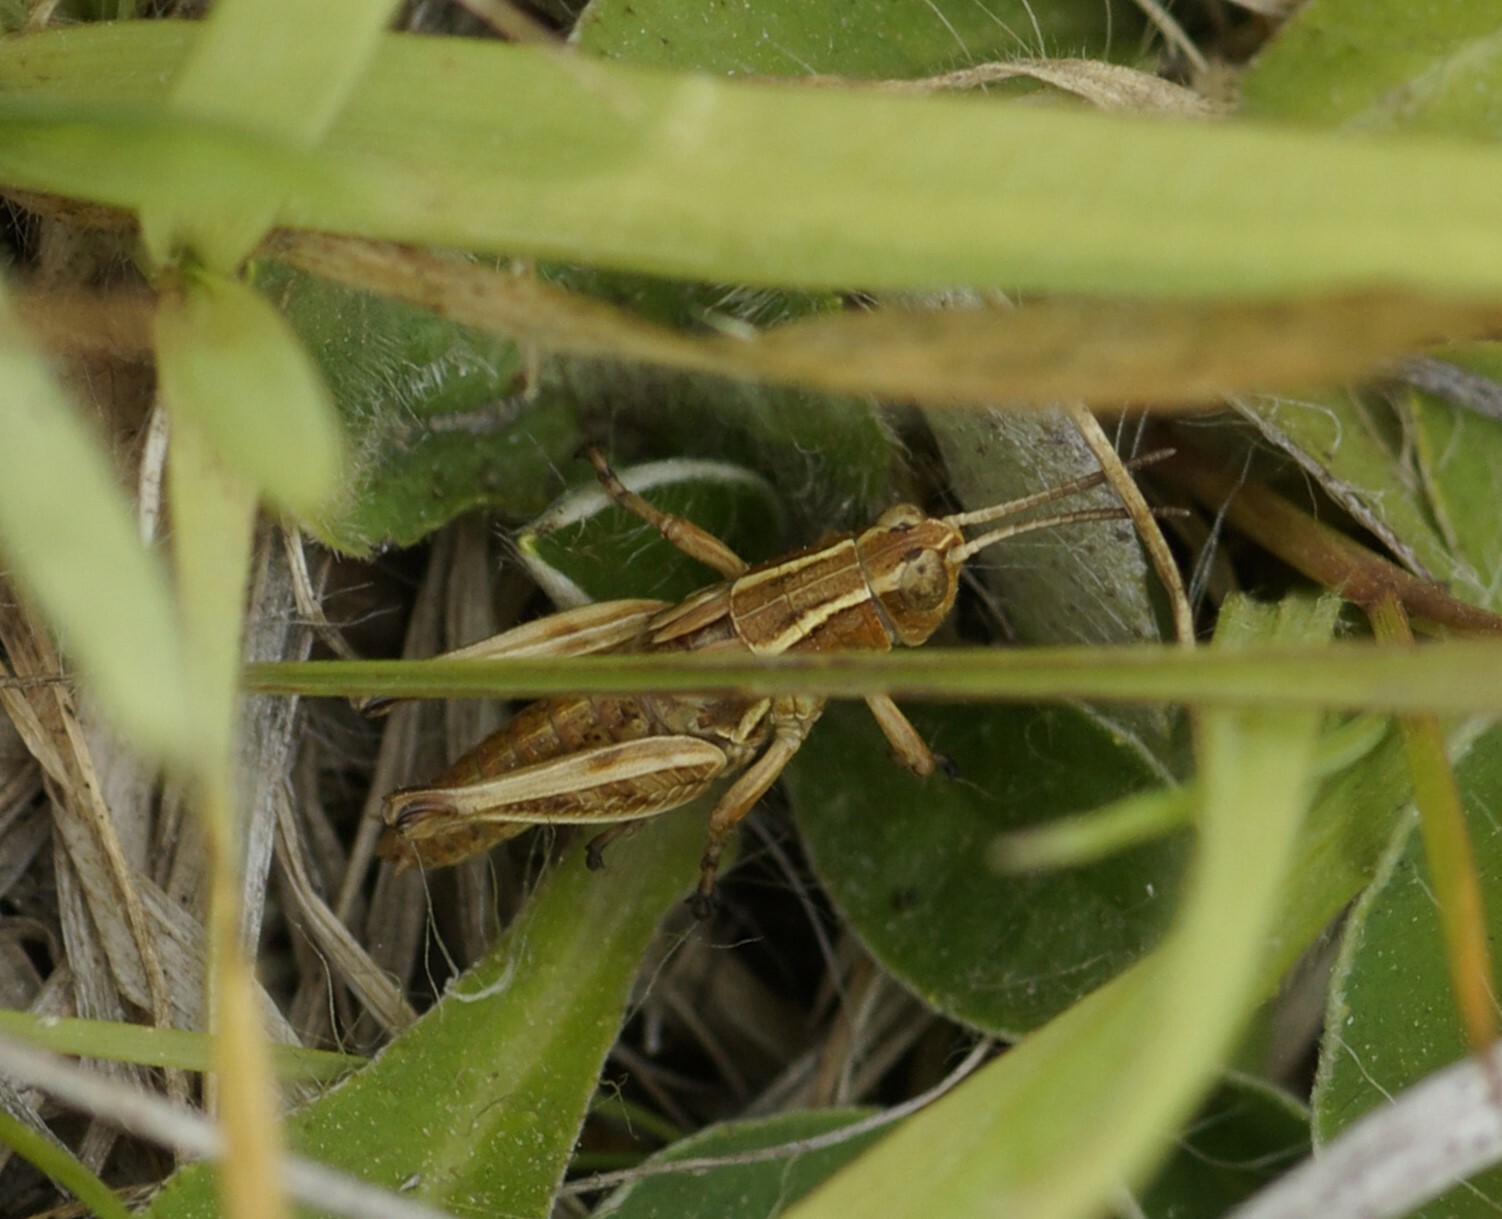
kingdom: Animalia
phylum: Arthropoda
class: Insecta
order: Orthoptera
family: Acrididae
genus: Phaulacridium
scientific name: Phaulacridium marginale
